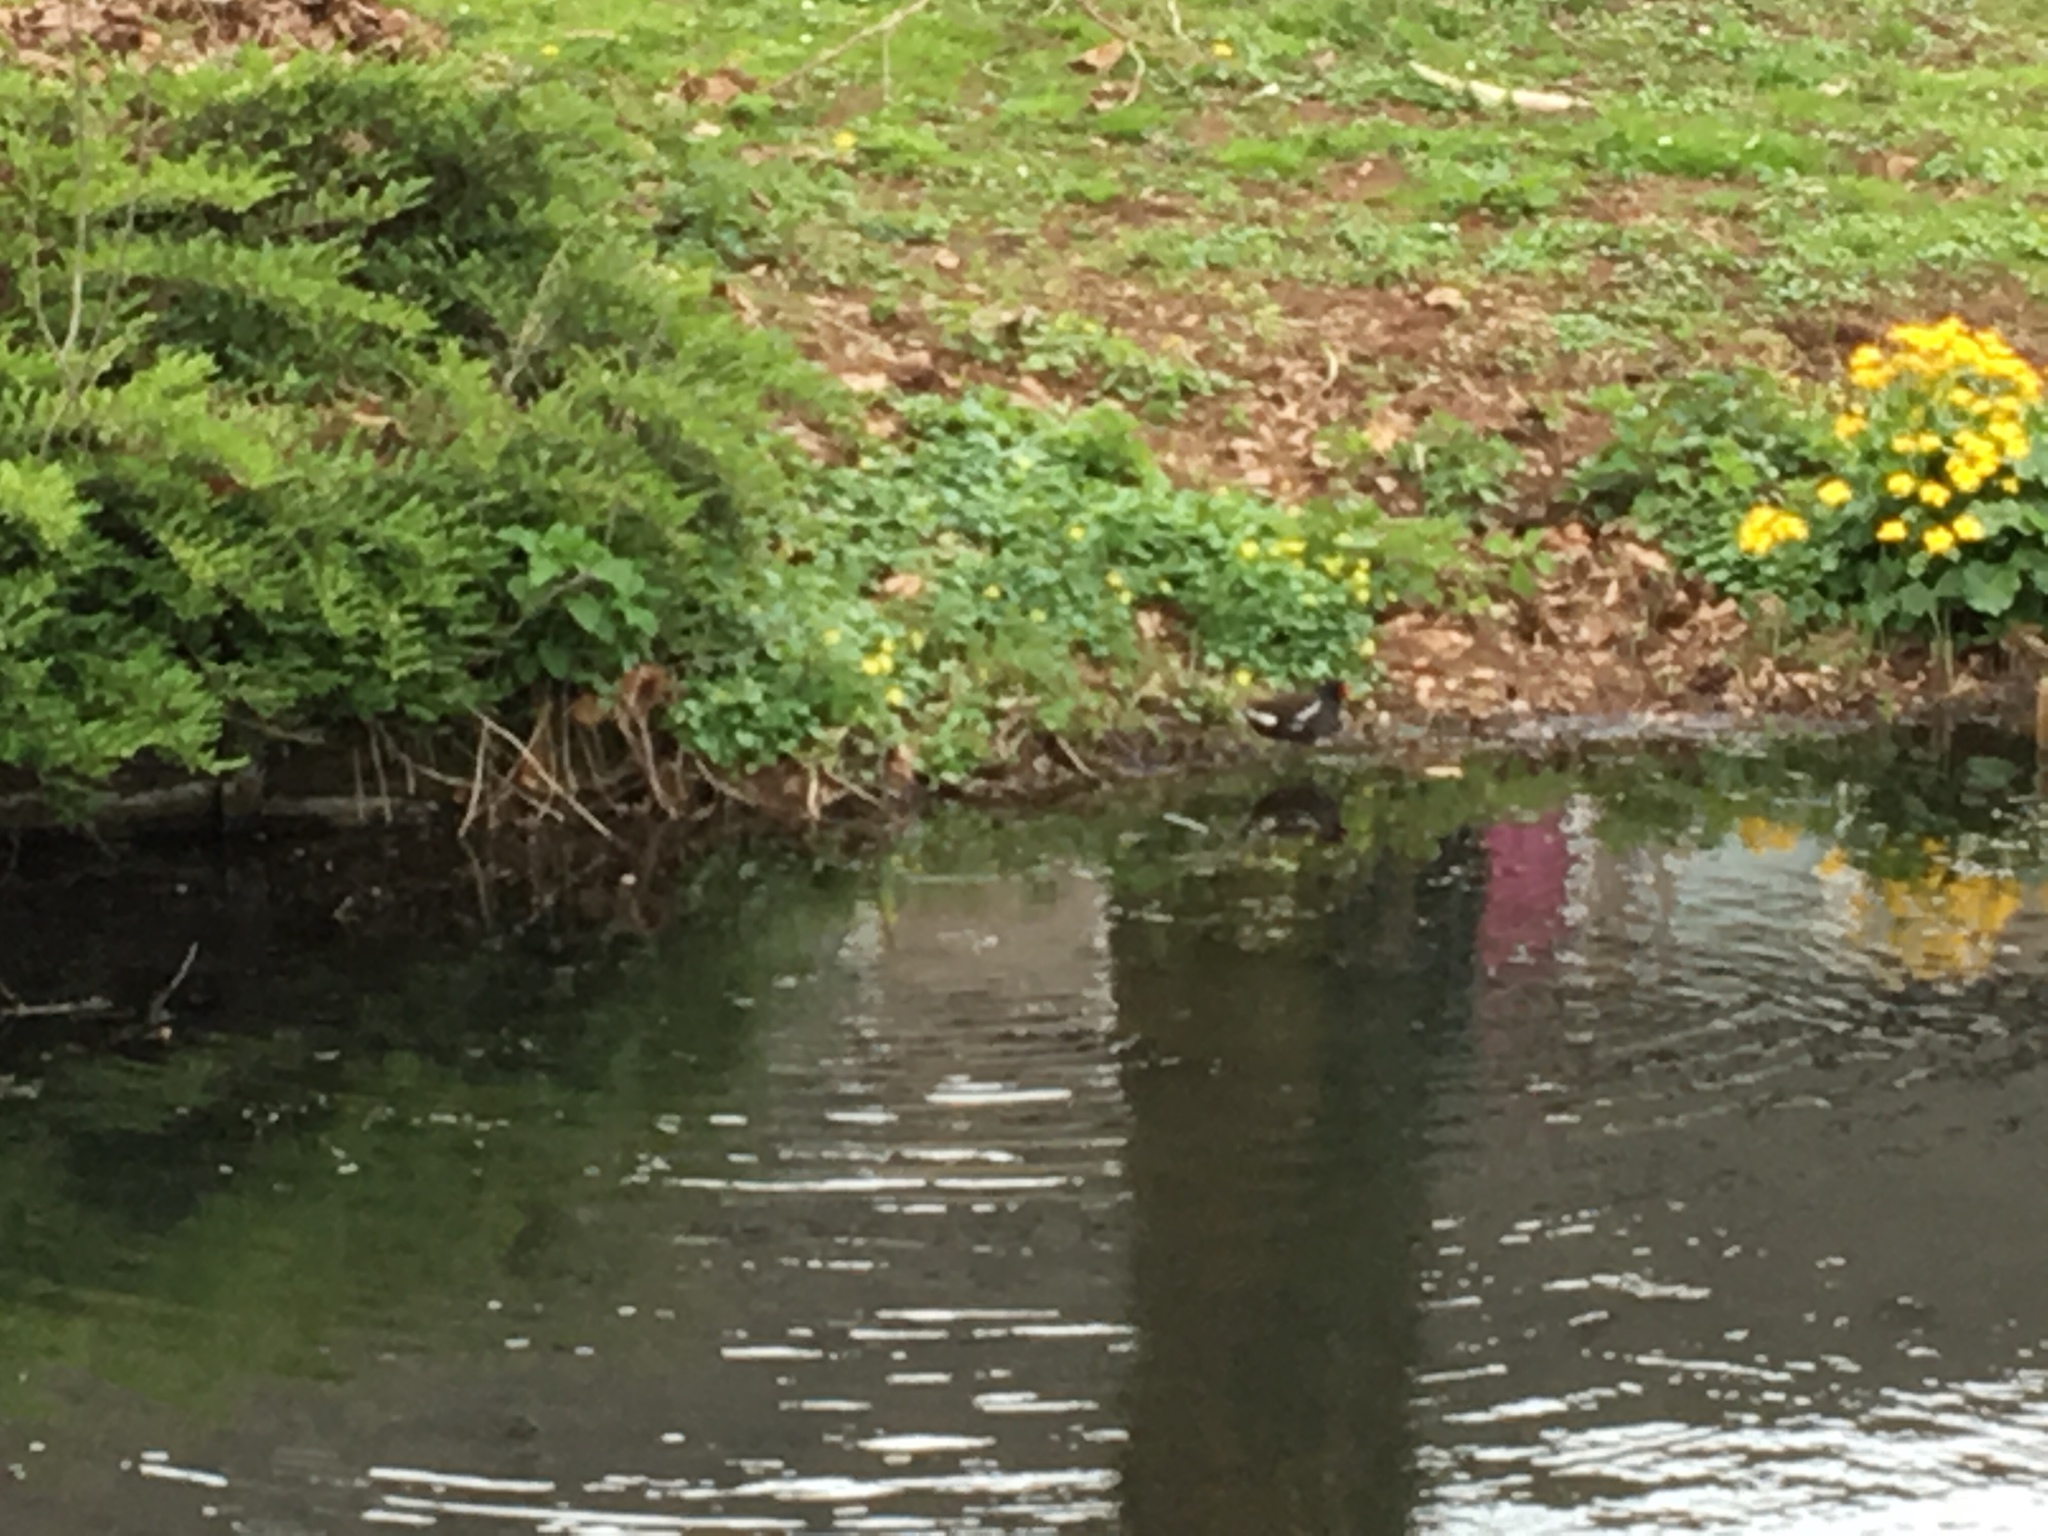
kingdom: Animalia
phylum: Chordata
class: Aves
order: Gruiformes
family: Rallidae
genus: Gallinula
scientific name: Gallinula chloropus
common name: Common moorhen
